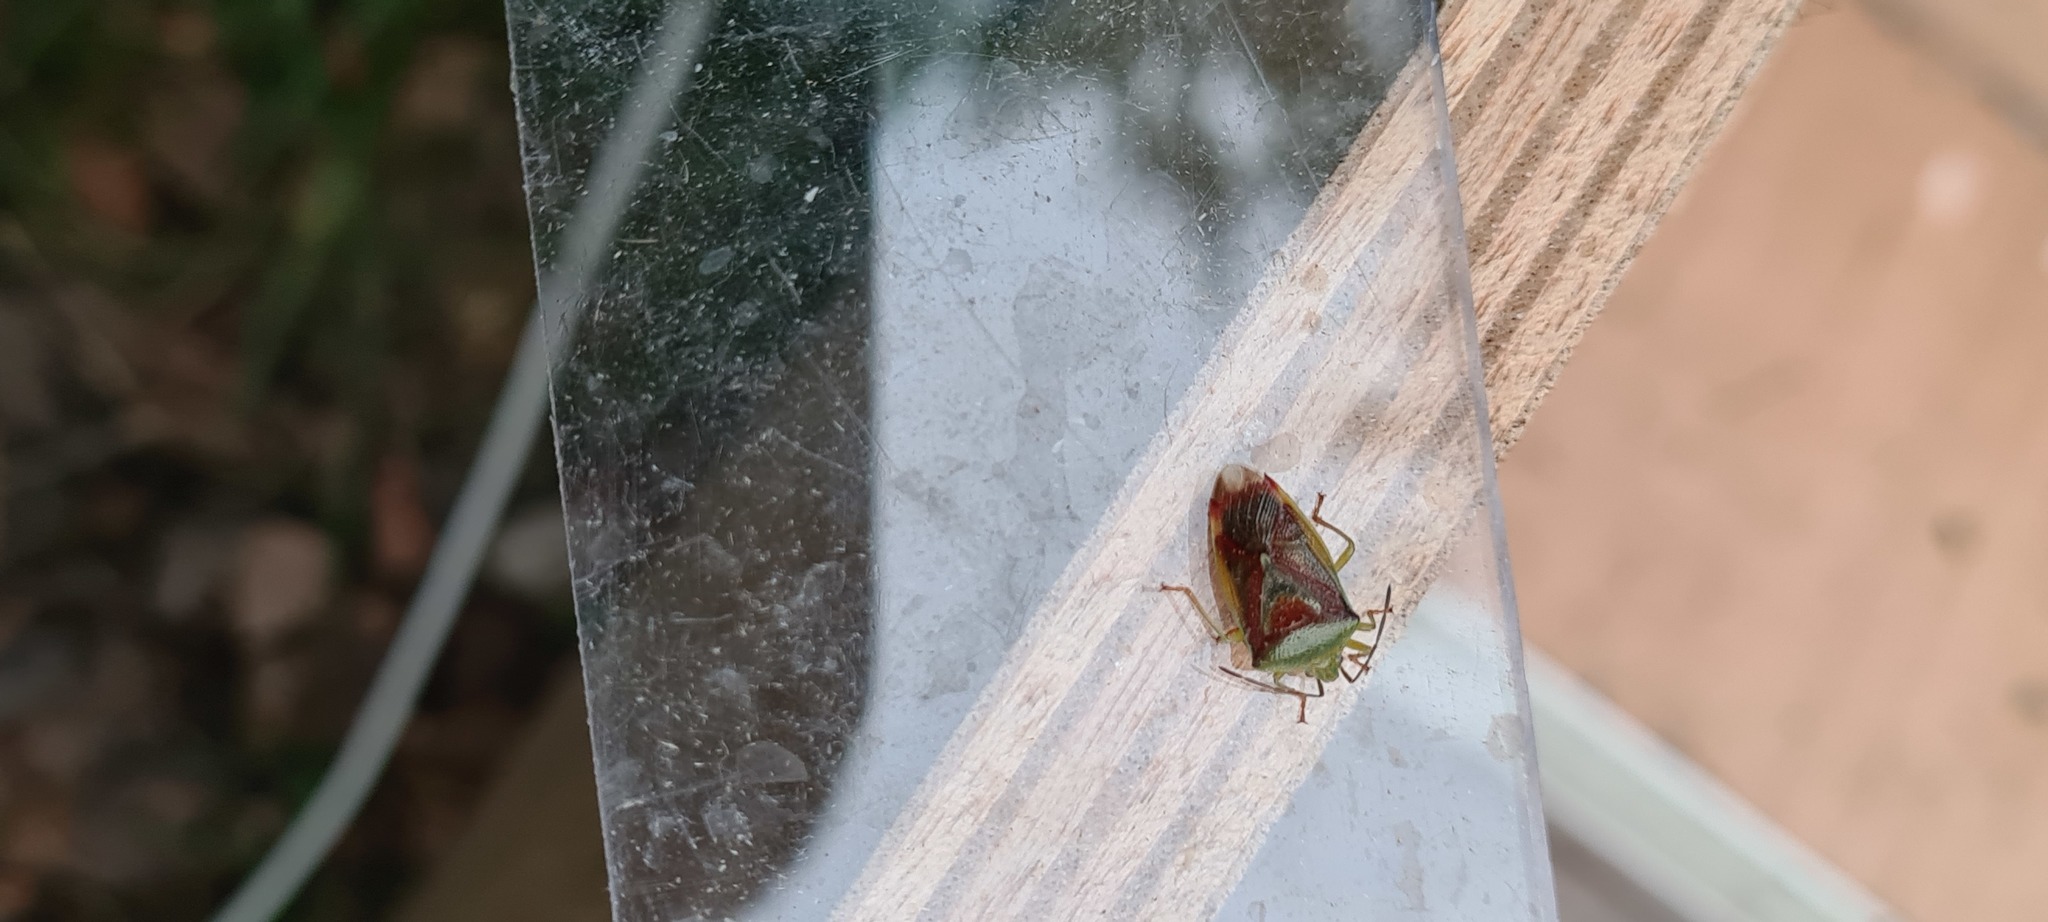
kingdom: Animalia
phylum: Arthropoda
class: Insecta
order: Hemiptera
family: Acanthosomatidae
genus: Elasmostethus
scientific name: Elasmostethus
